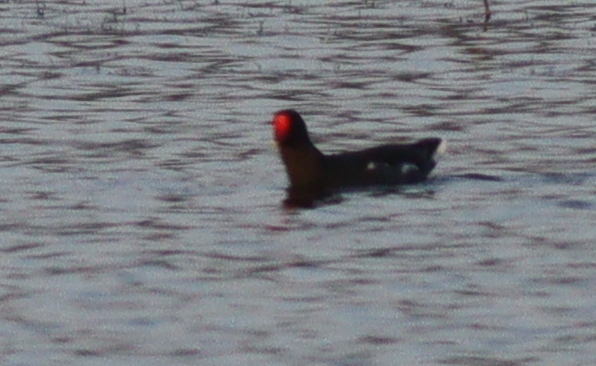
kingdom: Animalia
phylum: Chordata
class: Aves
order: Gruiformes
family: Rallidae
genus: Gallinula
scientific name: Gallinula chloropus
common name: Common moorhen
